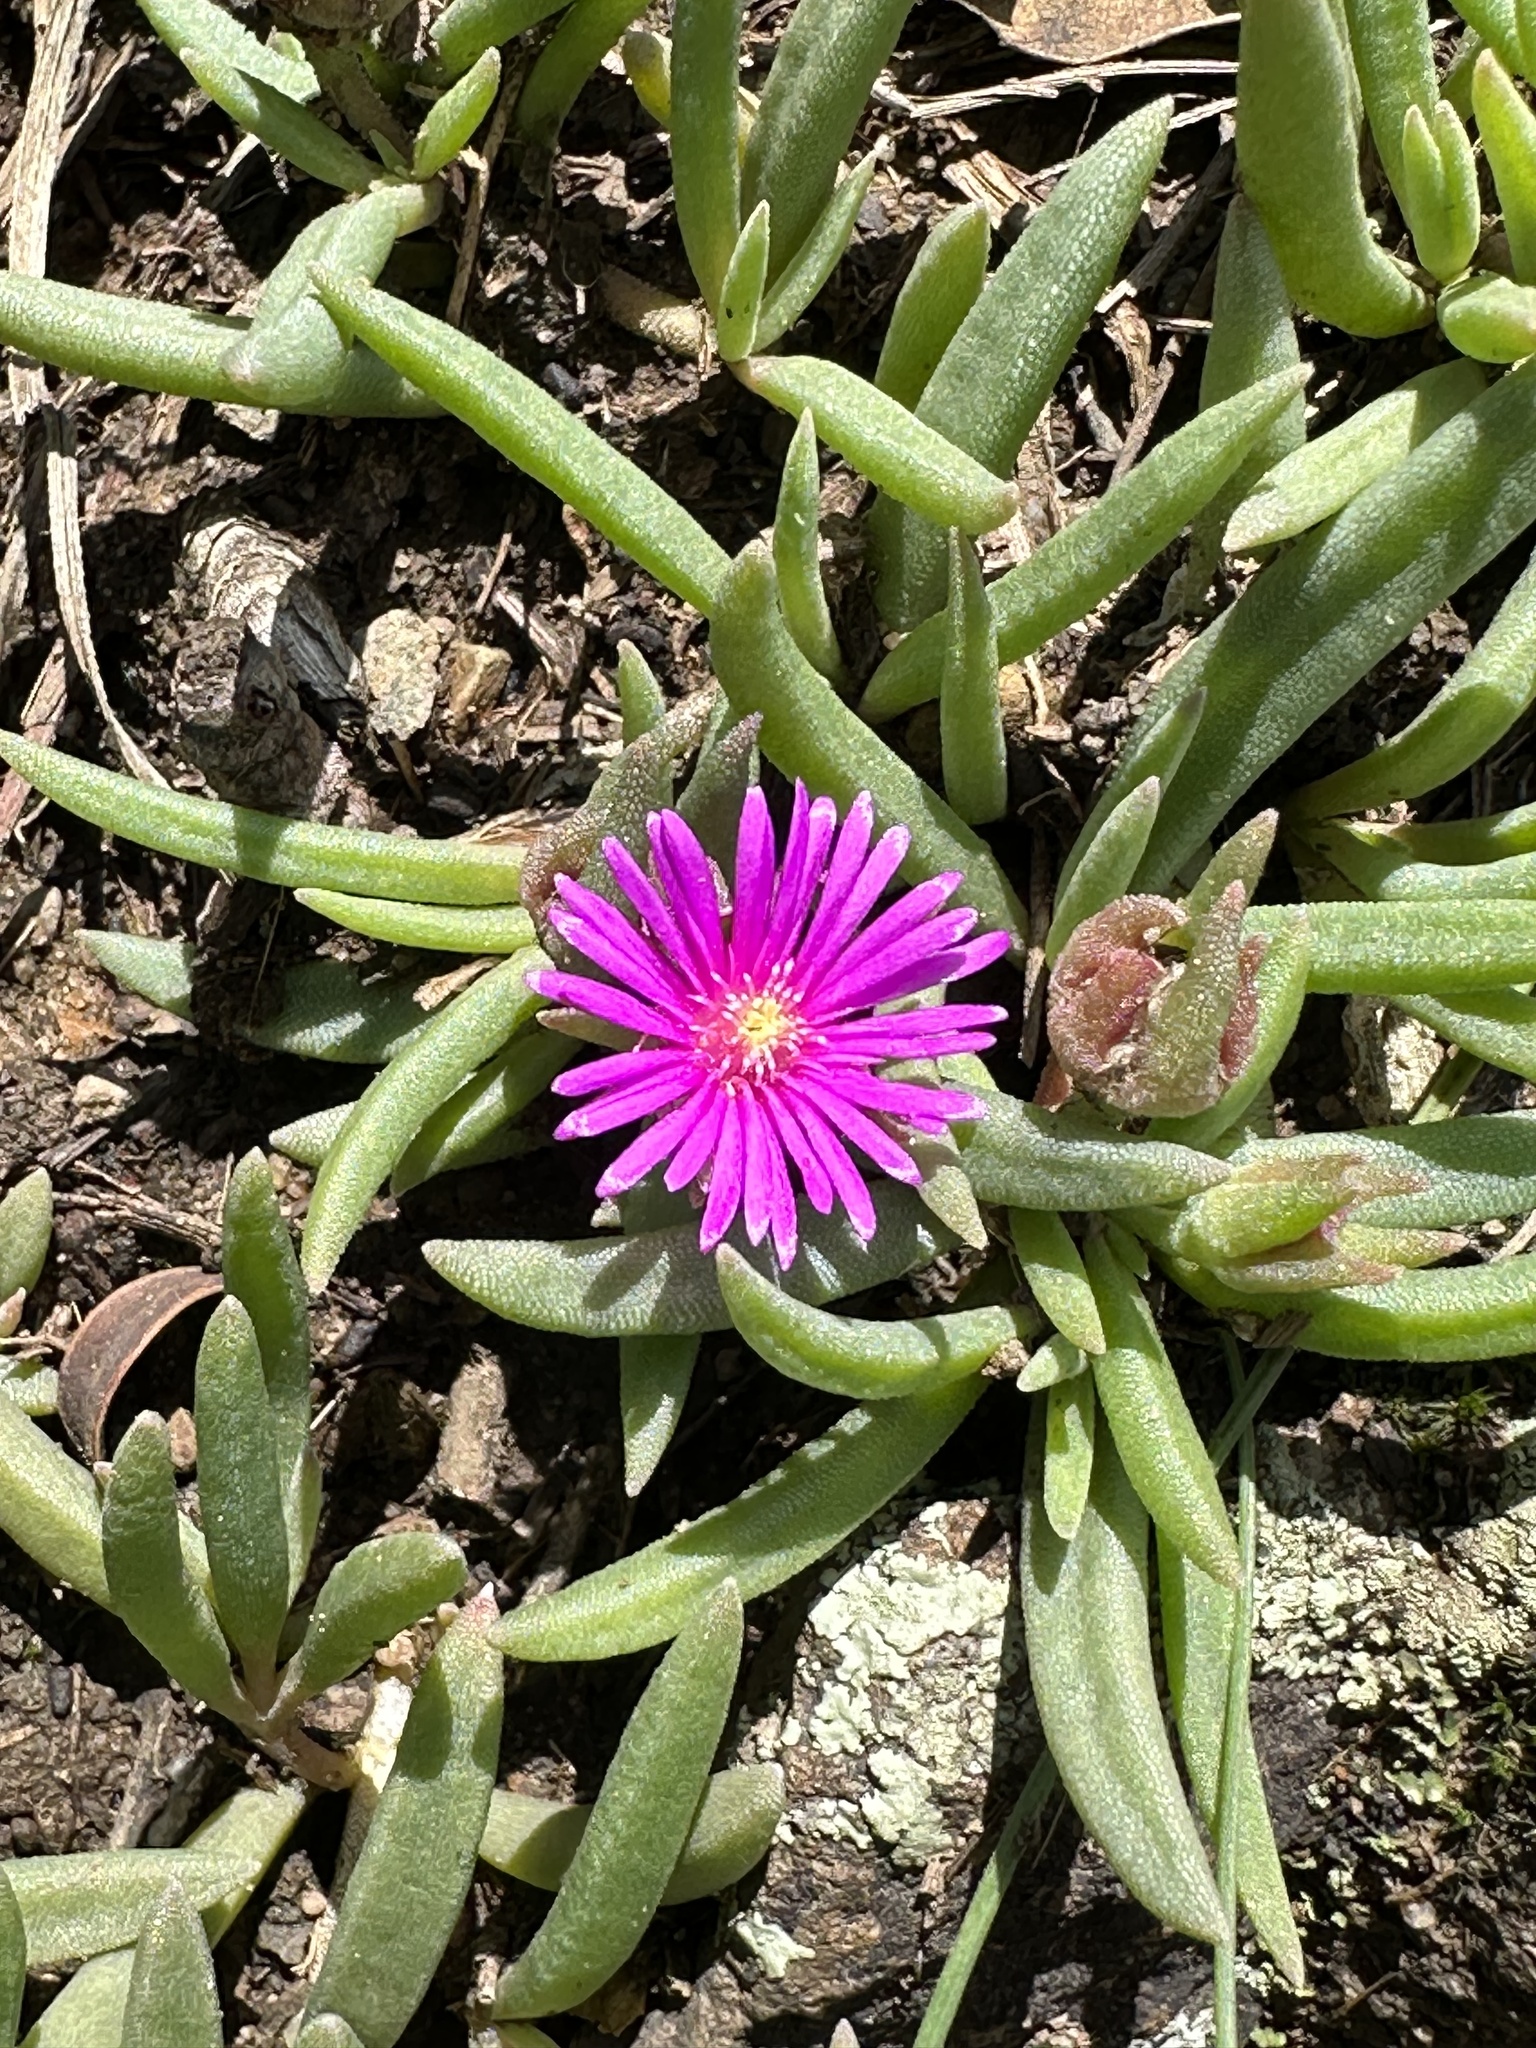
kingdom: Plantae
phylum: Tracheophyta
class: Magnoliopsida
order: Caryophyllales
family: Aizoaceae
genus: Delosperma
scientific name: Delosperma cooperi
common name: Hardy iceplant
